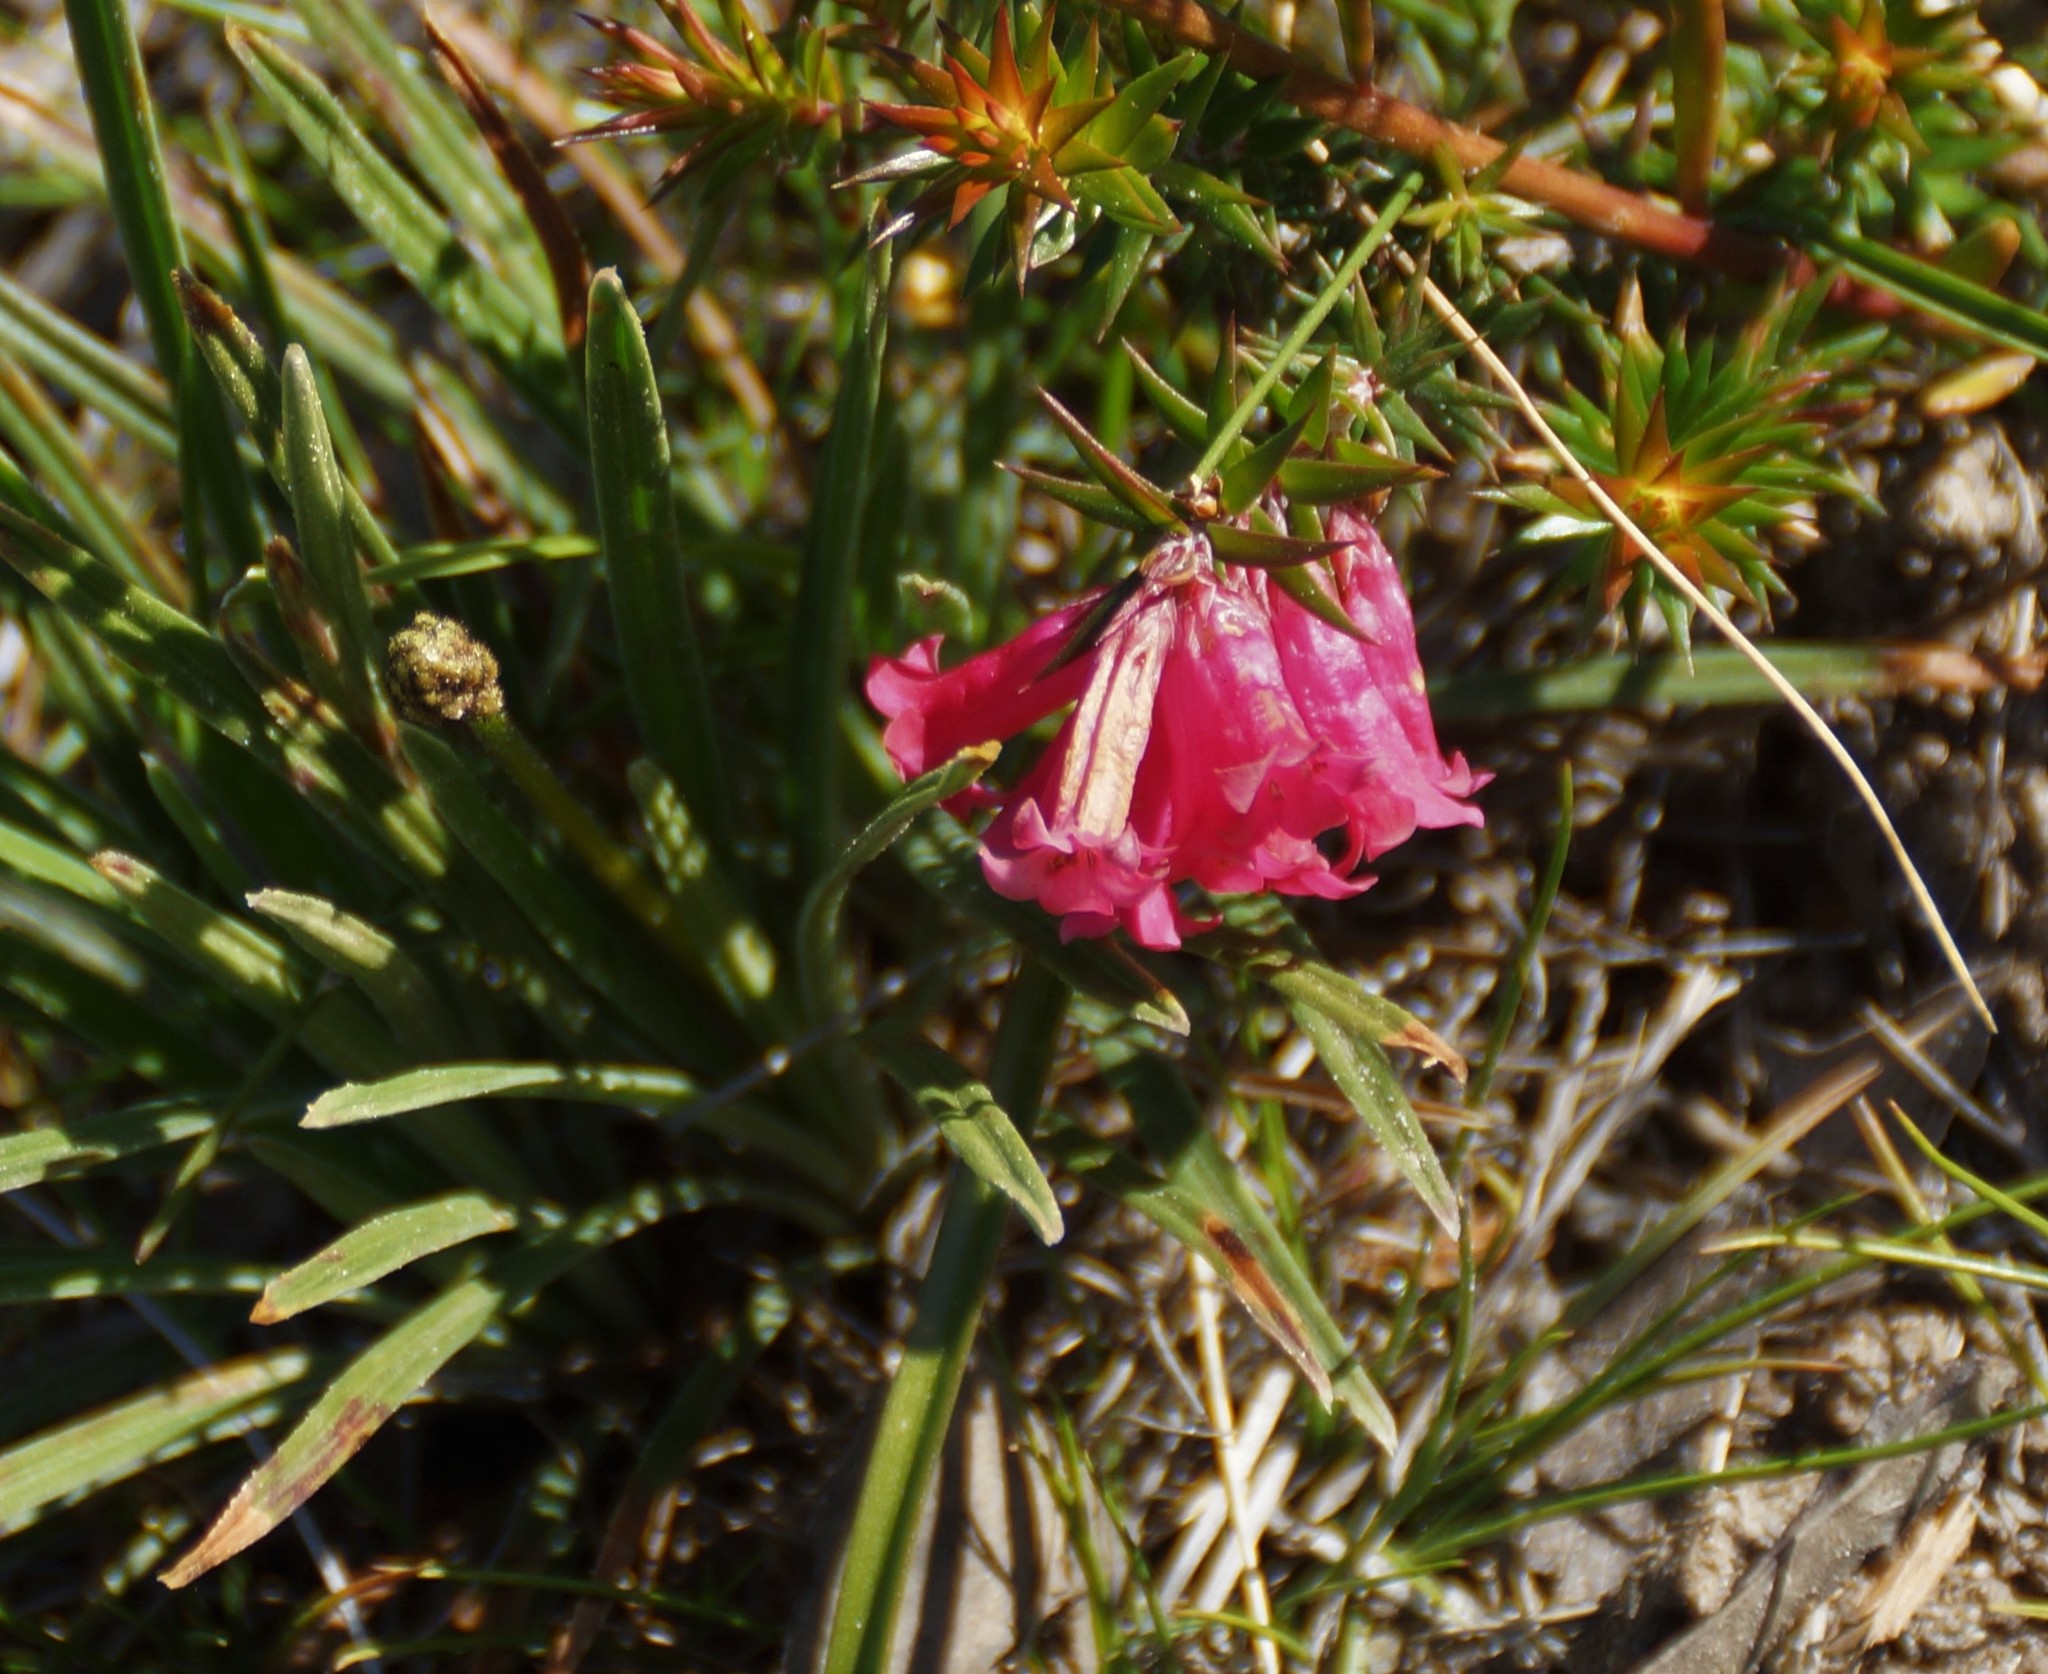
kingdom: Plantae
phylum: Tracheophyta
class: Magnoliopsida
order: Ericales
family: Ericaceae
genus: Epacris
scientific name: Epacris impressa
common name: Common-heath
